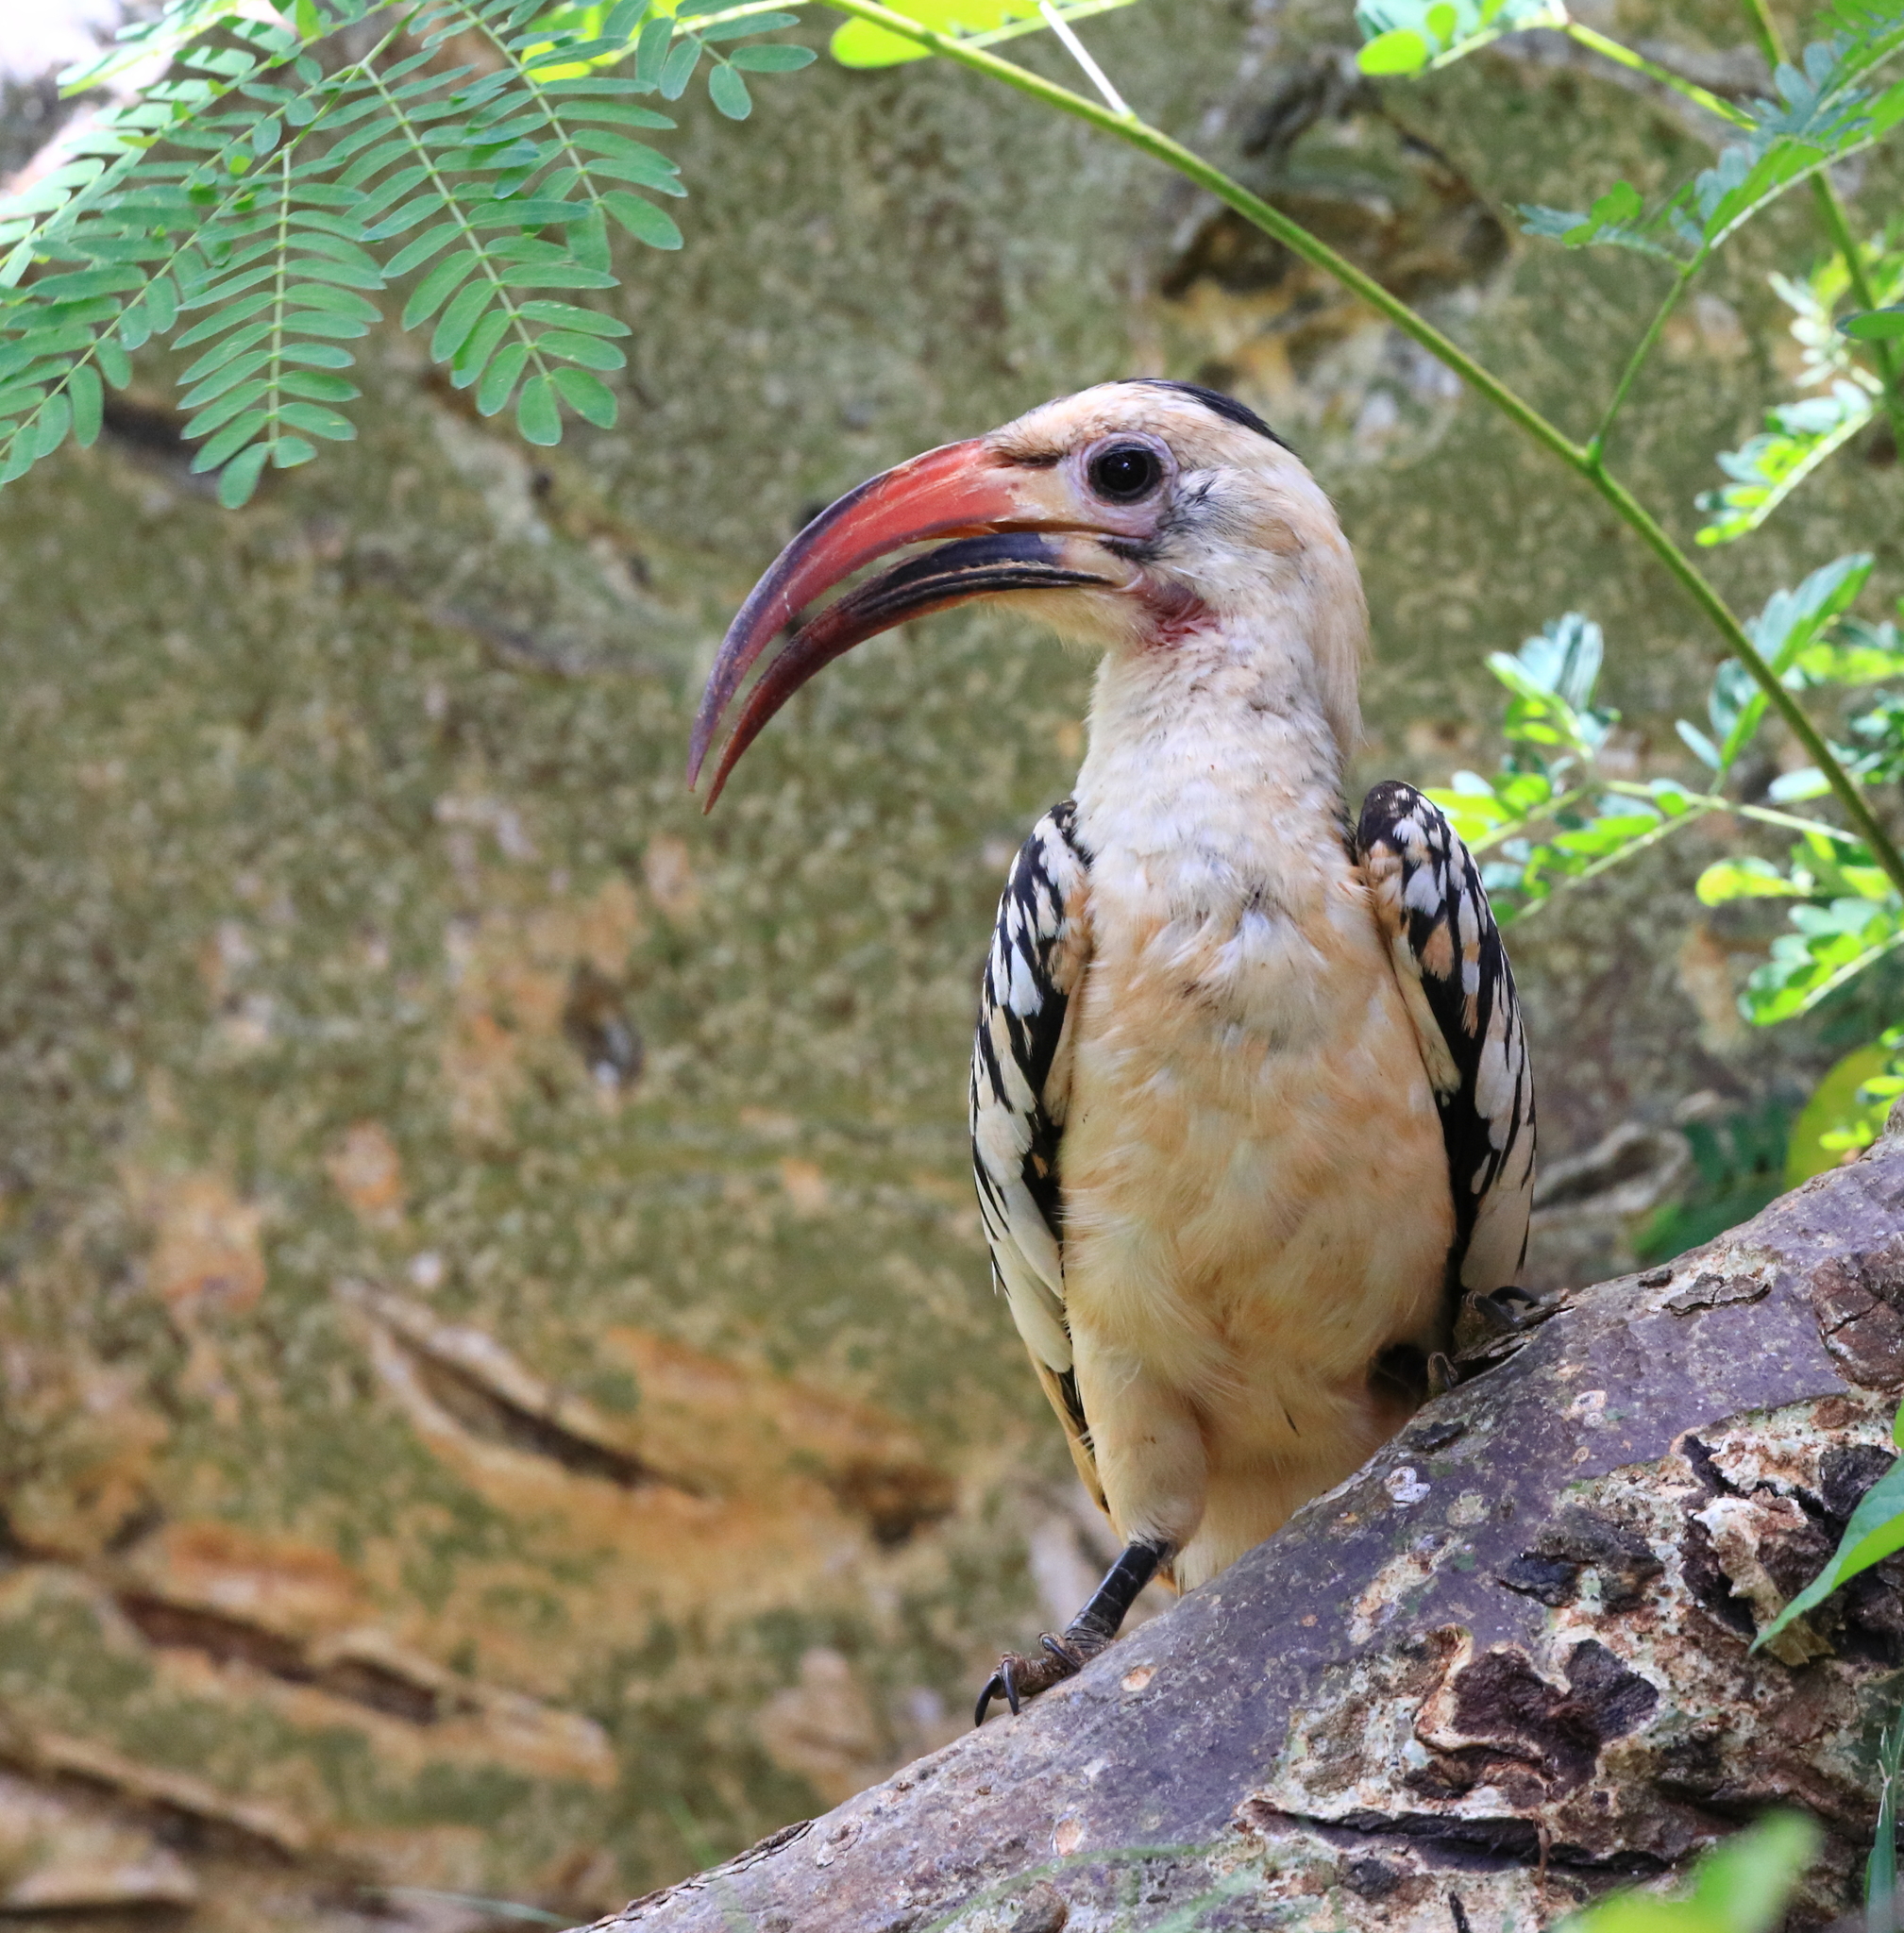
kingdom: Animalia
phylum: Chordata
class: Aves
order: Bucerotiformes
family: Bucerotidae
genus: Tockus
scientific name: Tockus erythrorhynchus
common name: Northern red-billed hornbill
